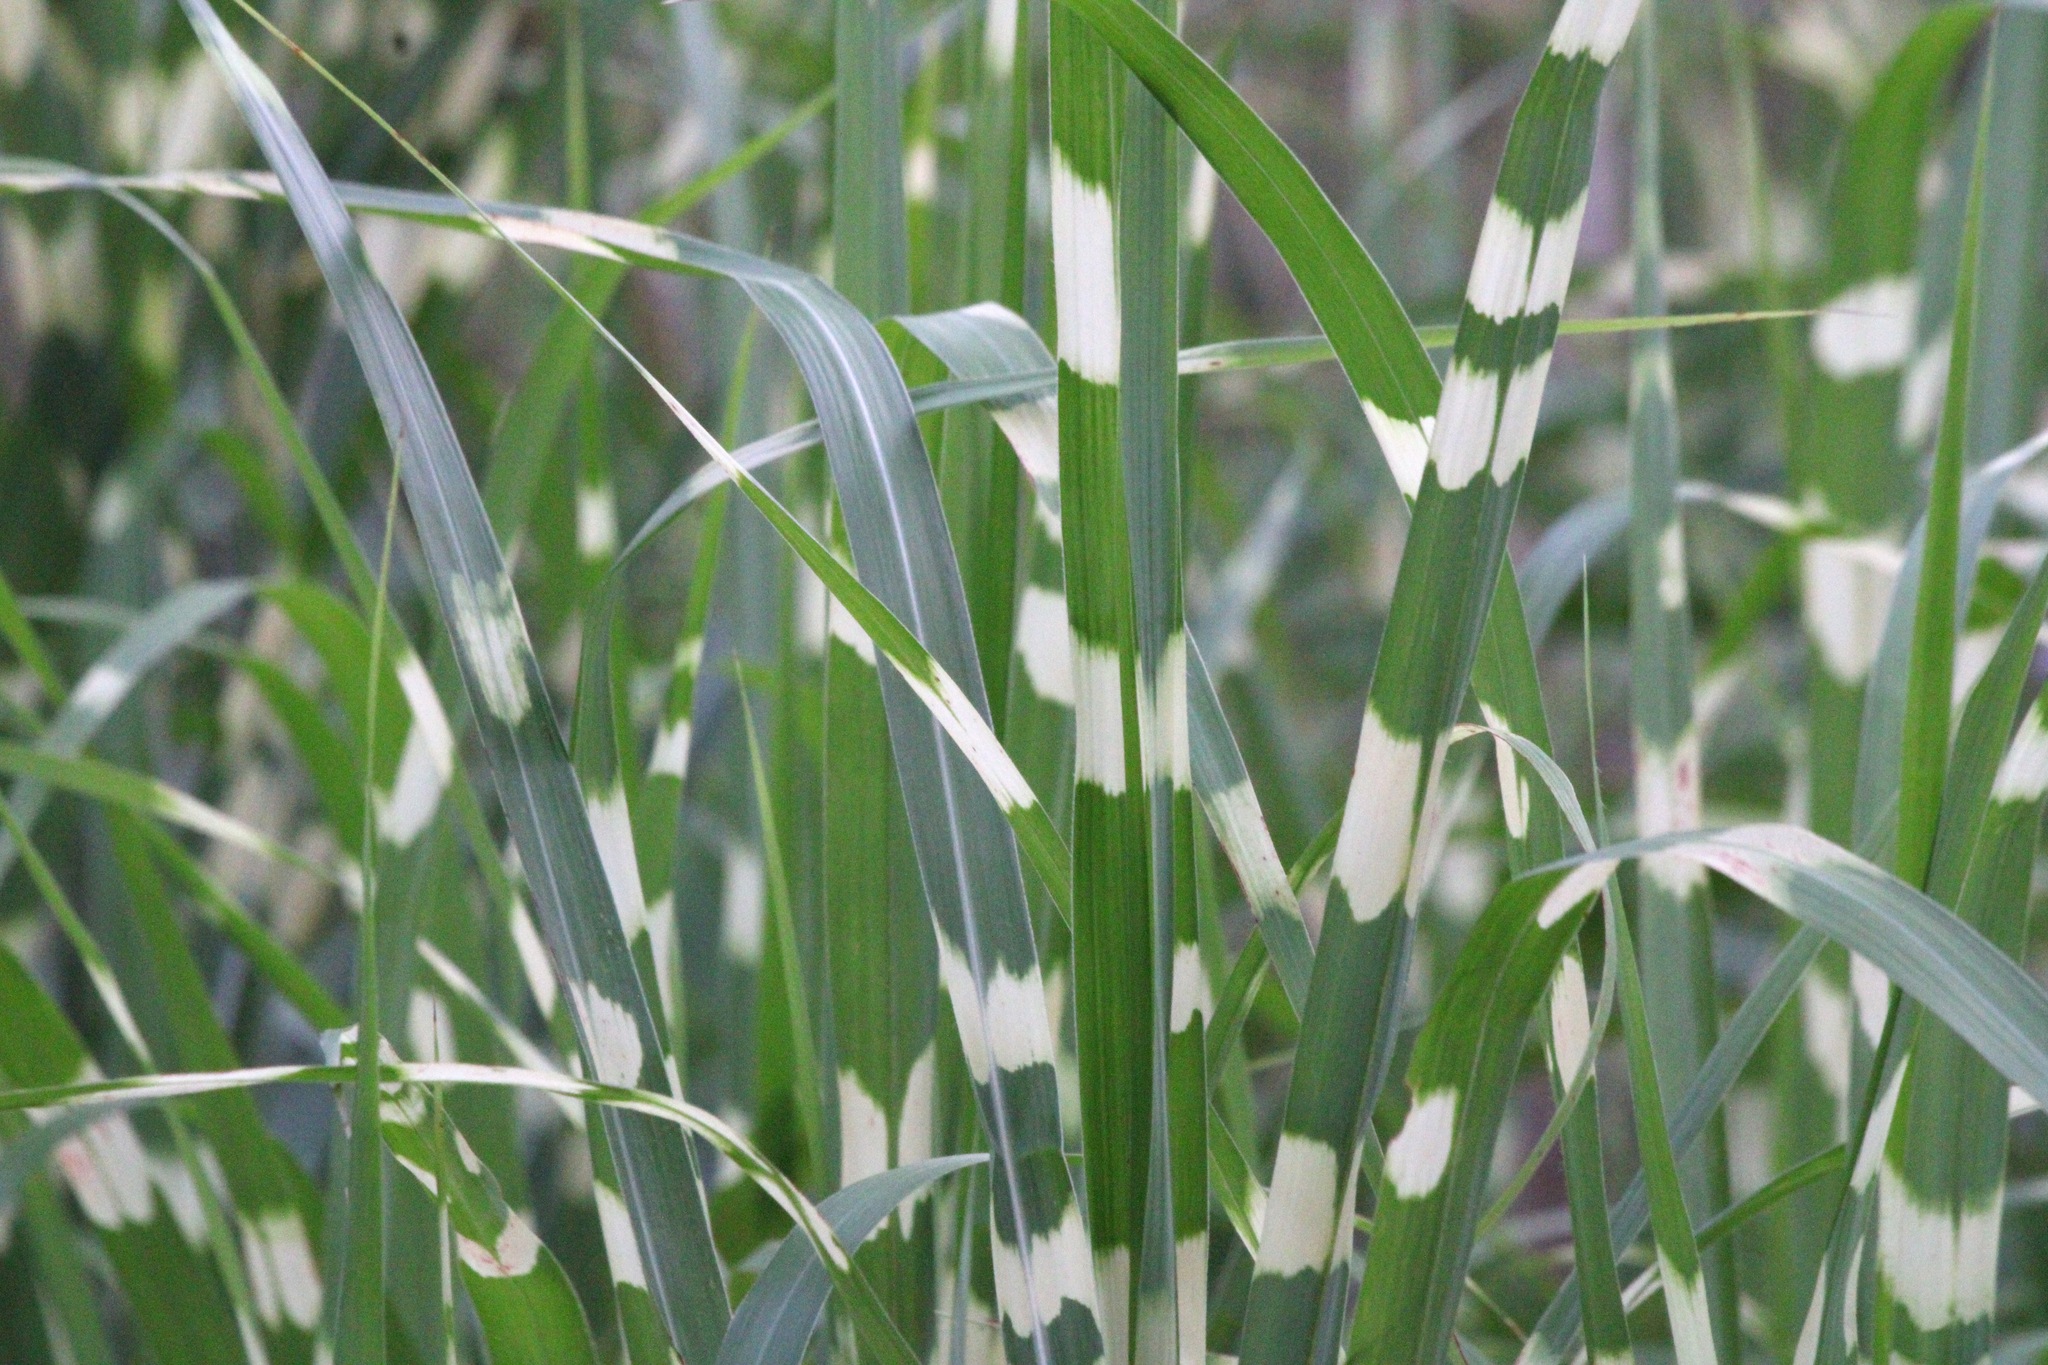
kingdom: Plantae
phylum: Tracheophyta
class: Liliopsida
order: Poales
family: Poaceae
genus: Miscanthus
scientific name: Miscanthus sinensis
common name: Chinese silvergrass
